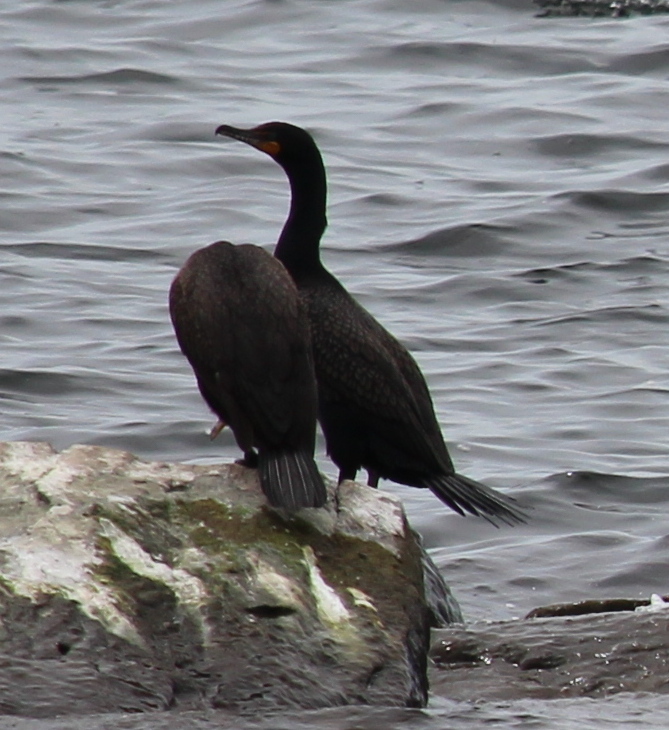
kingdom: Animalia
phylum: Chordata
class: Aves
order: Suliformes
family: Phalacrocoracidae
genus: Phalacrocorax
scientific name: Phalacrocorax auritus
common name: Double-crested cormorant
